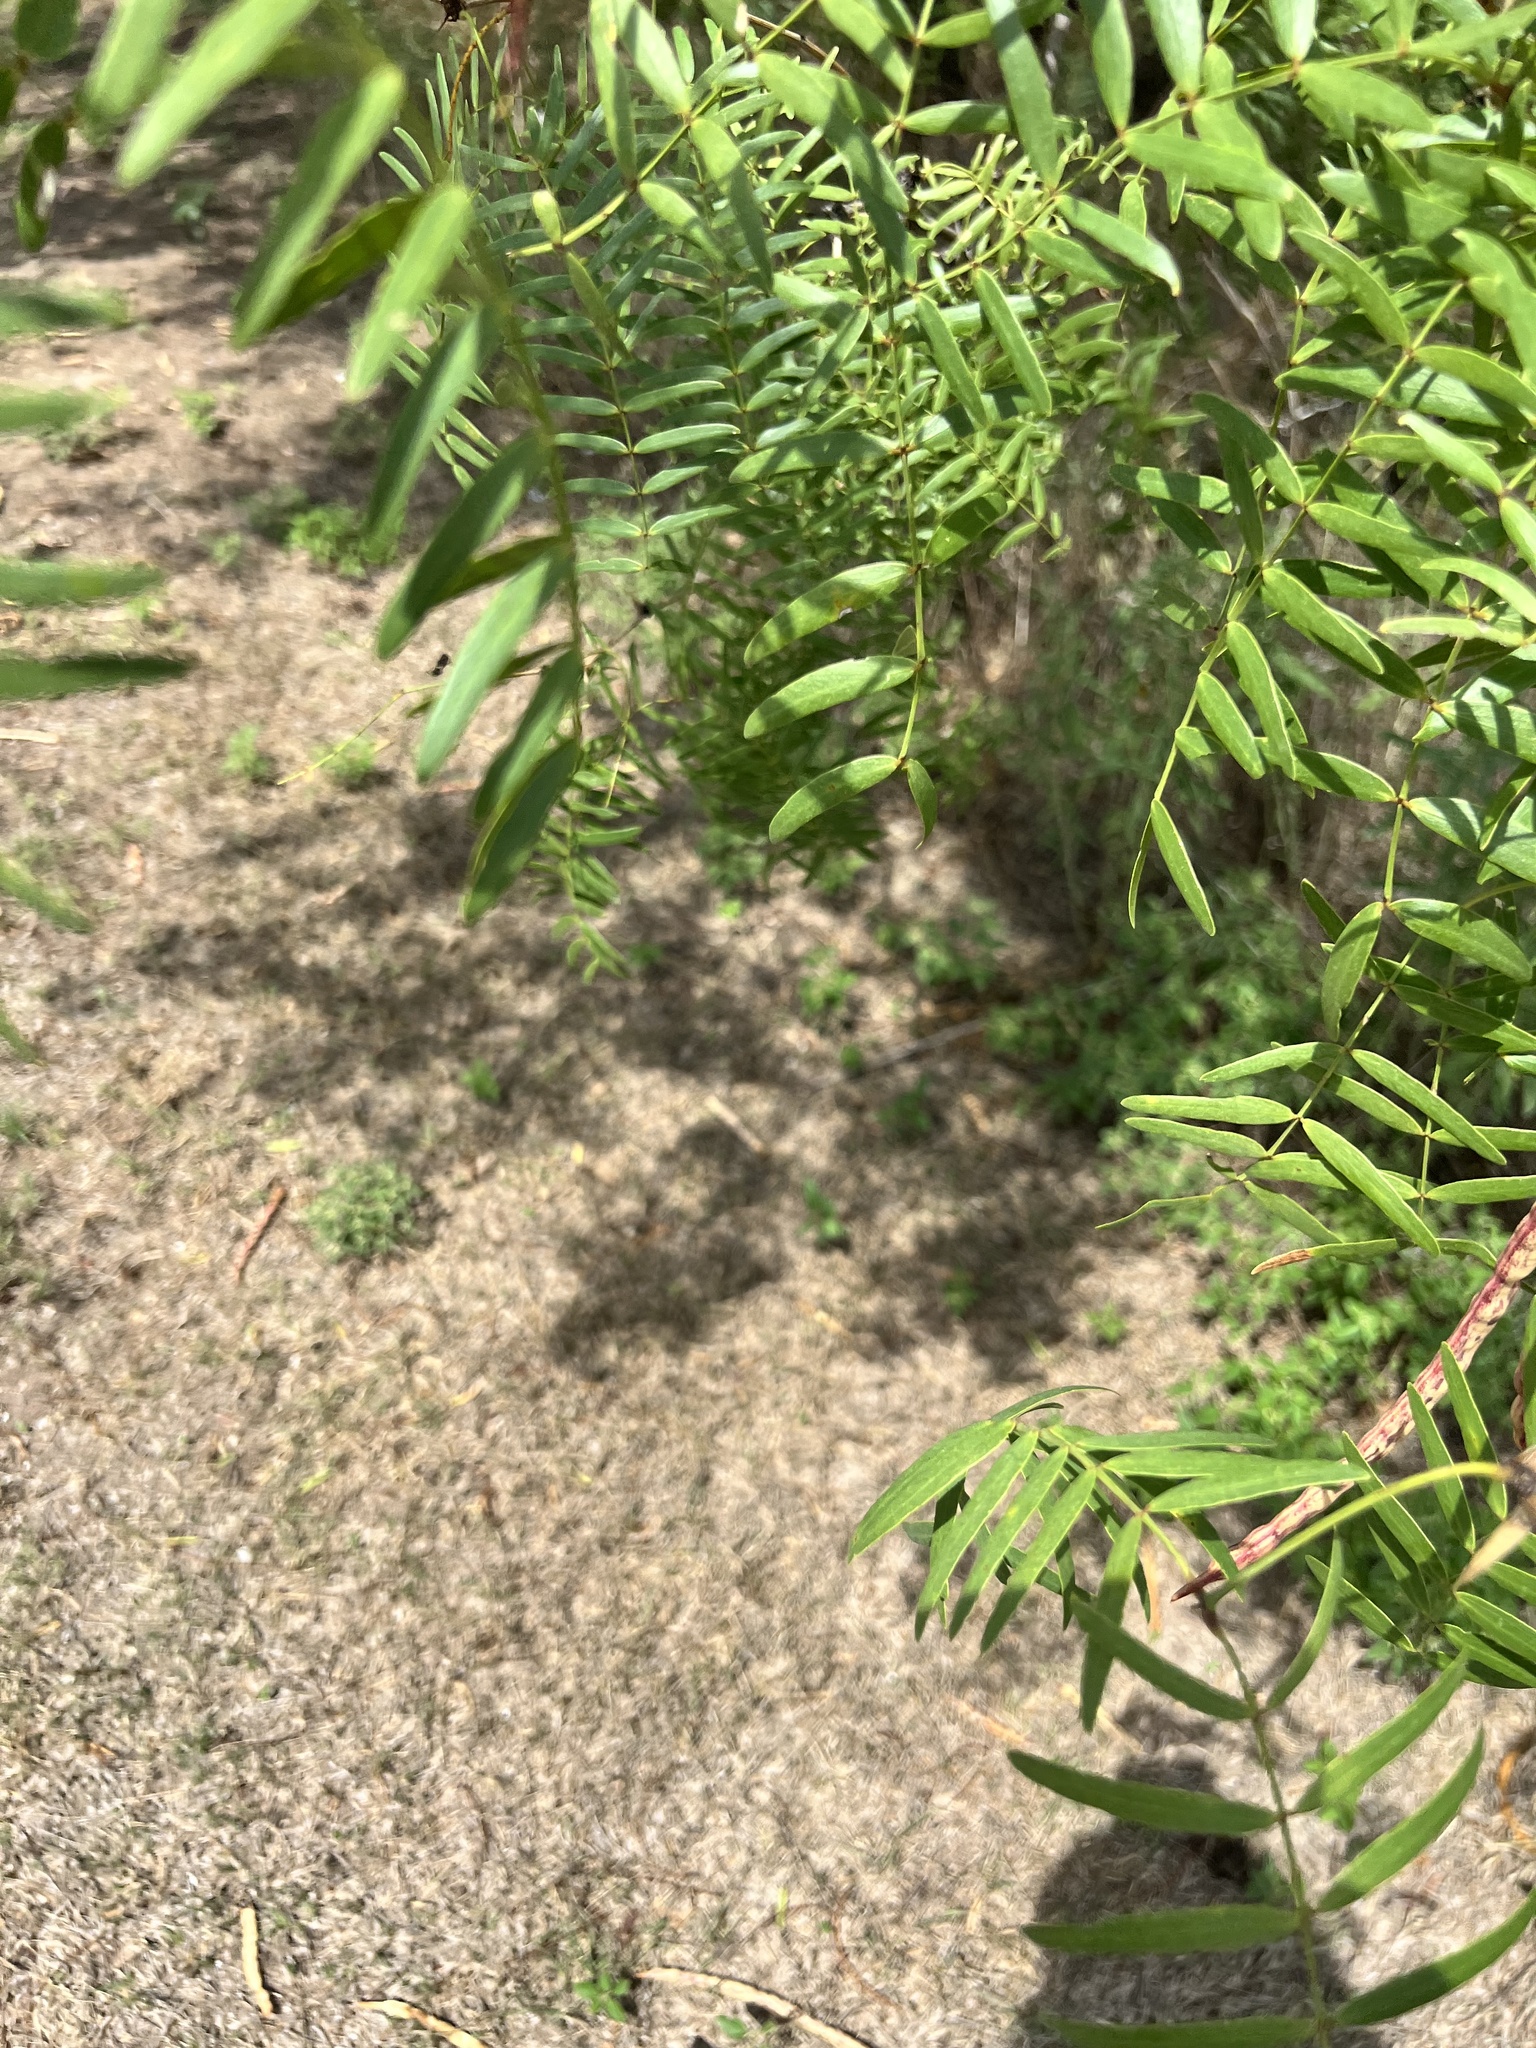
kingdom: Plantae
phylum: Tracheophyta
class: Magnoliopsida
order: Fabales
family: Fabaceae
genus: Prosopis
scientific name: Prosopis glandulosa
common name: Honey mesquite
